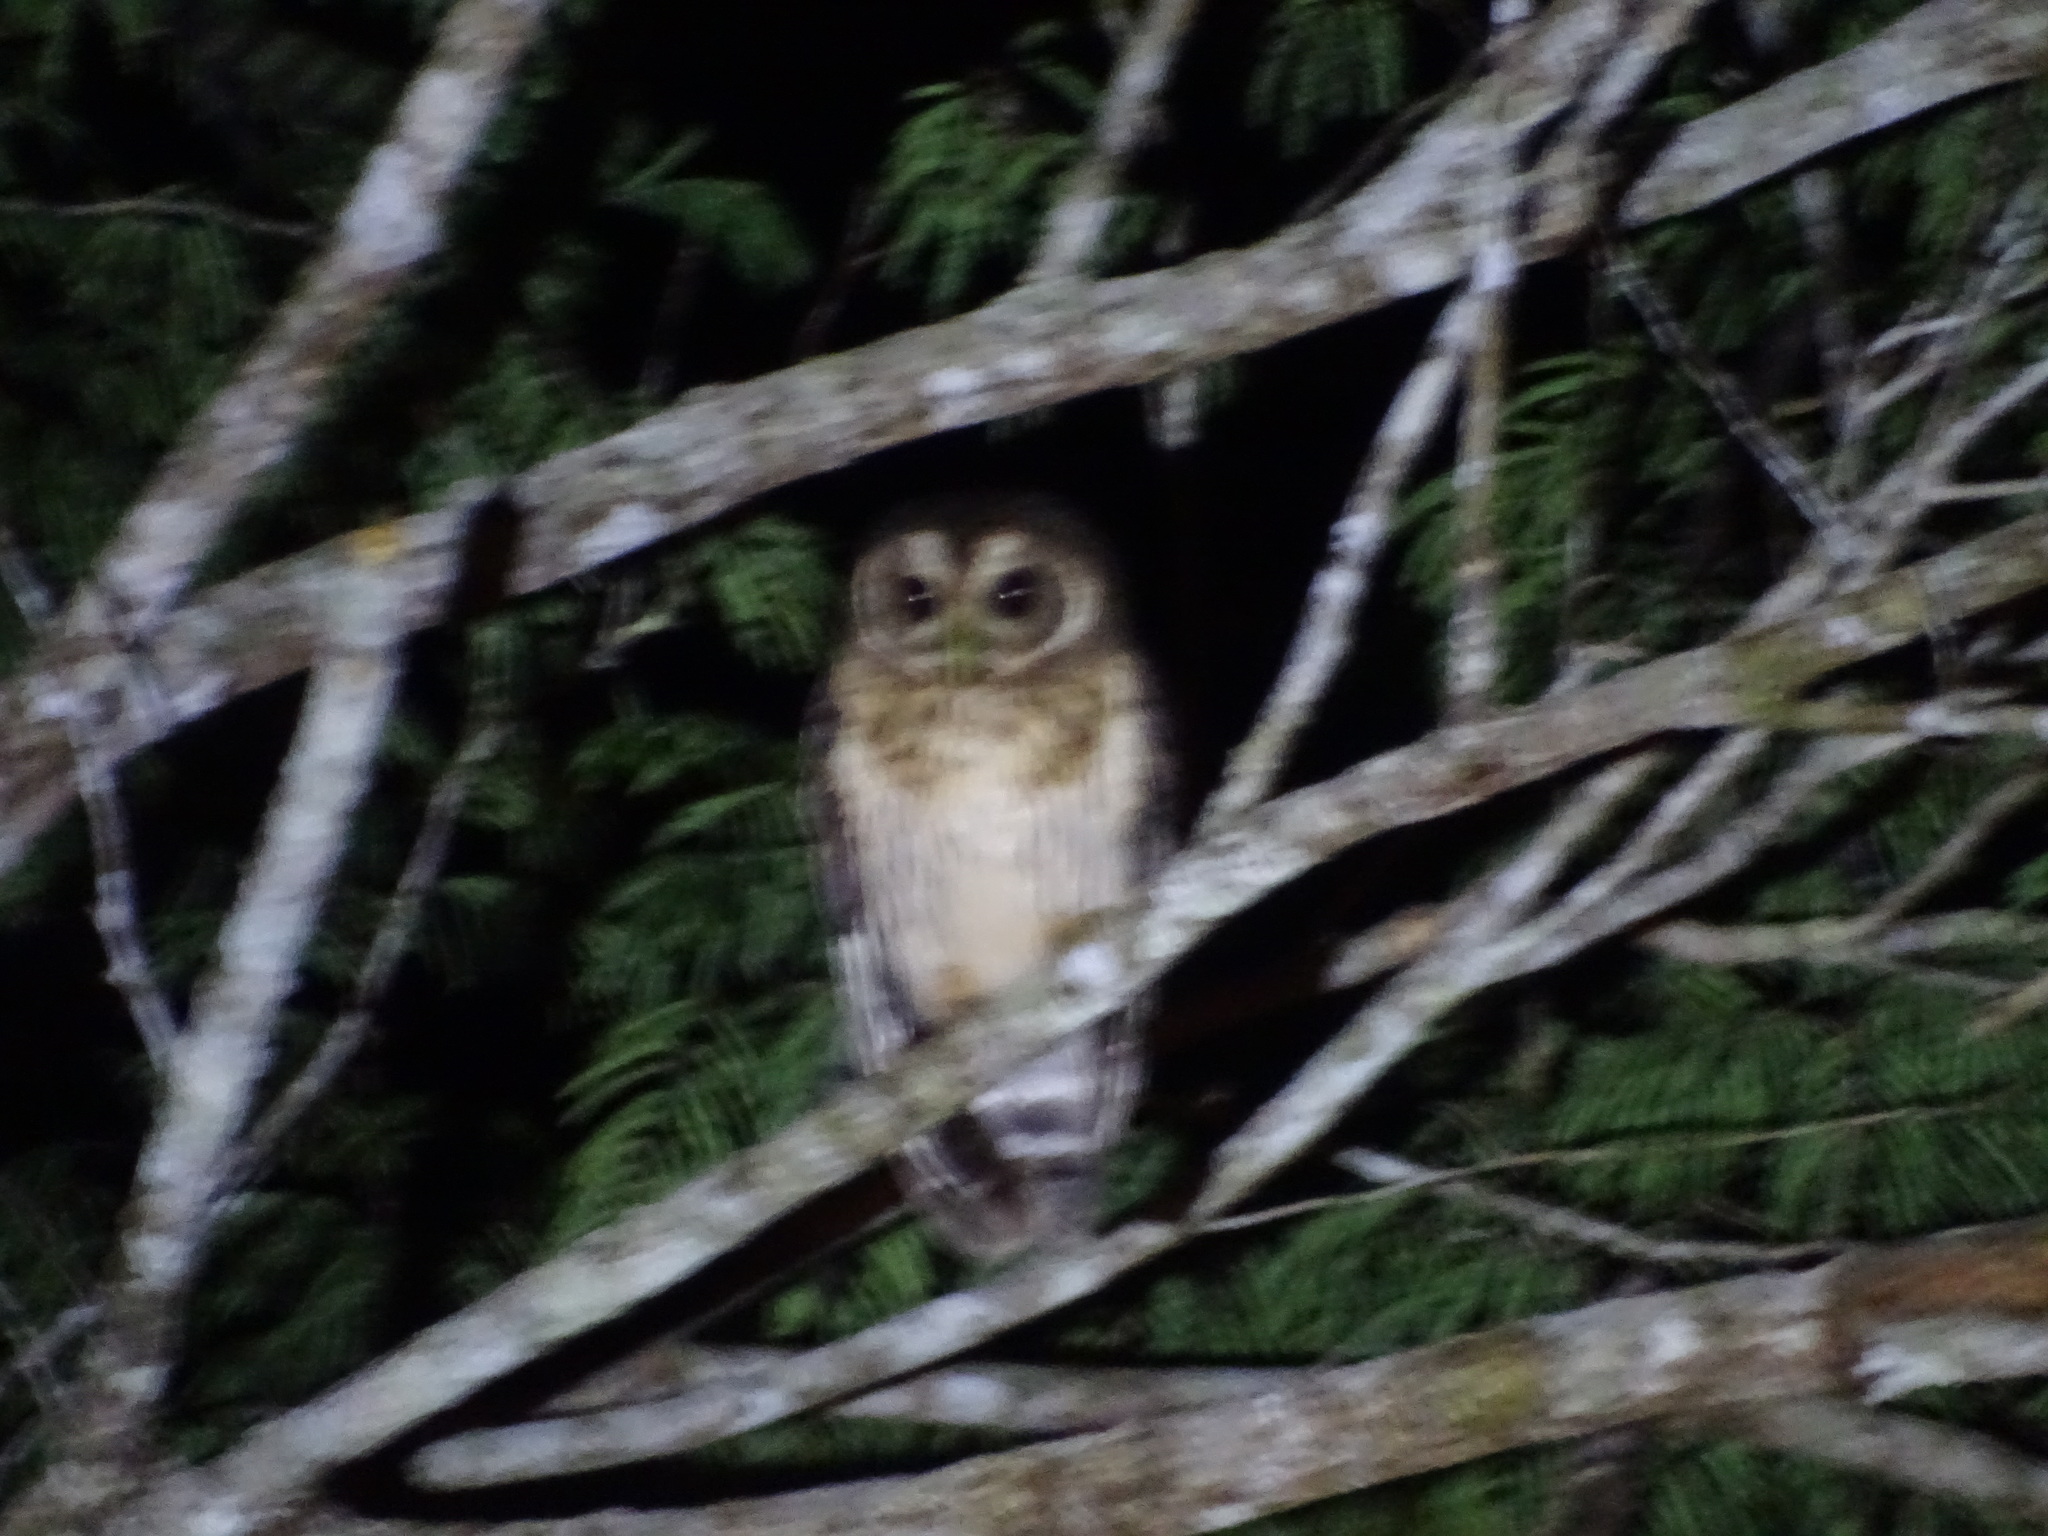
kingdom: Animalia
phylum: Chordata
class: Aves
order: Strigiformes
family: Strigidae
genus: Strix
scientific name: Strix virgata
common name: Mottled owl
